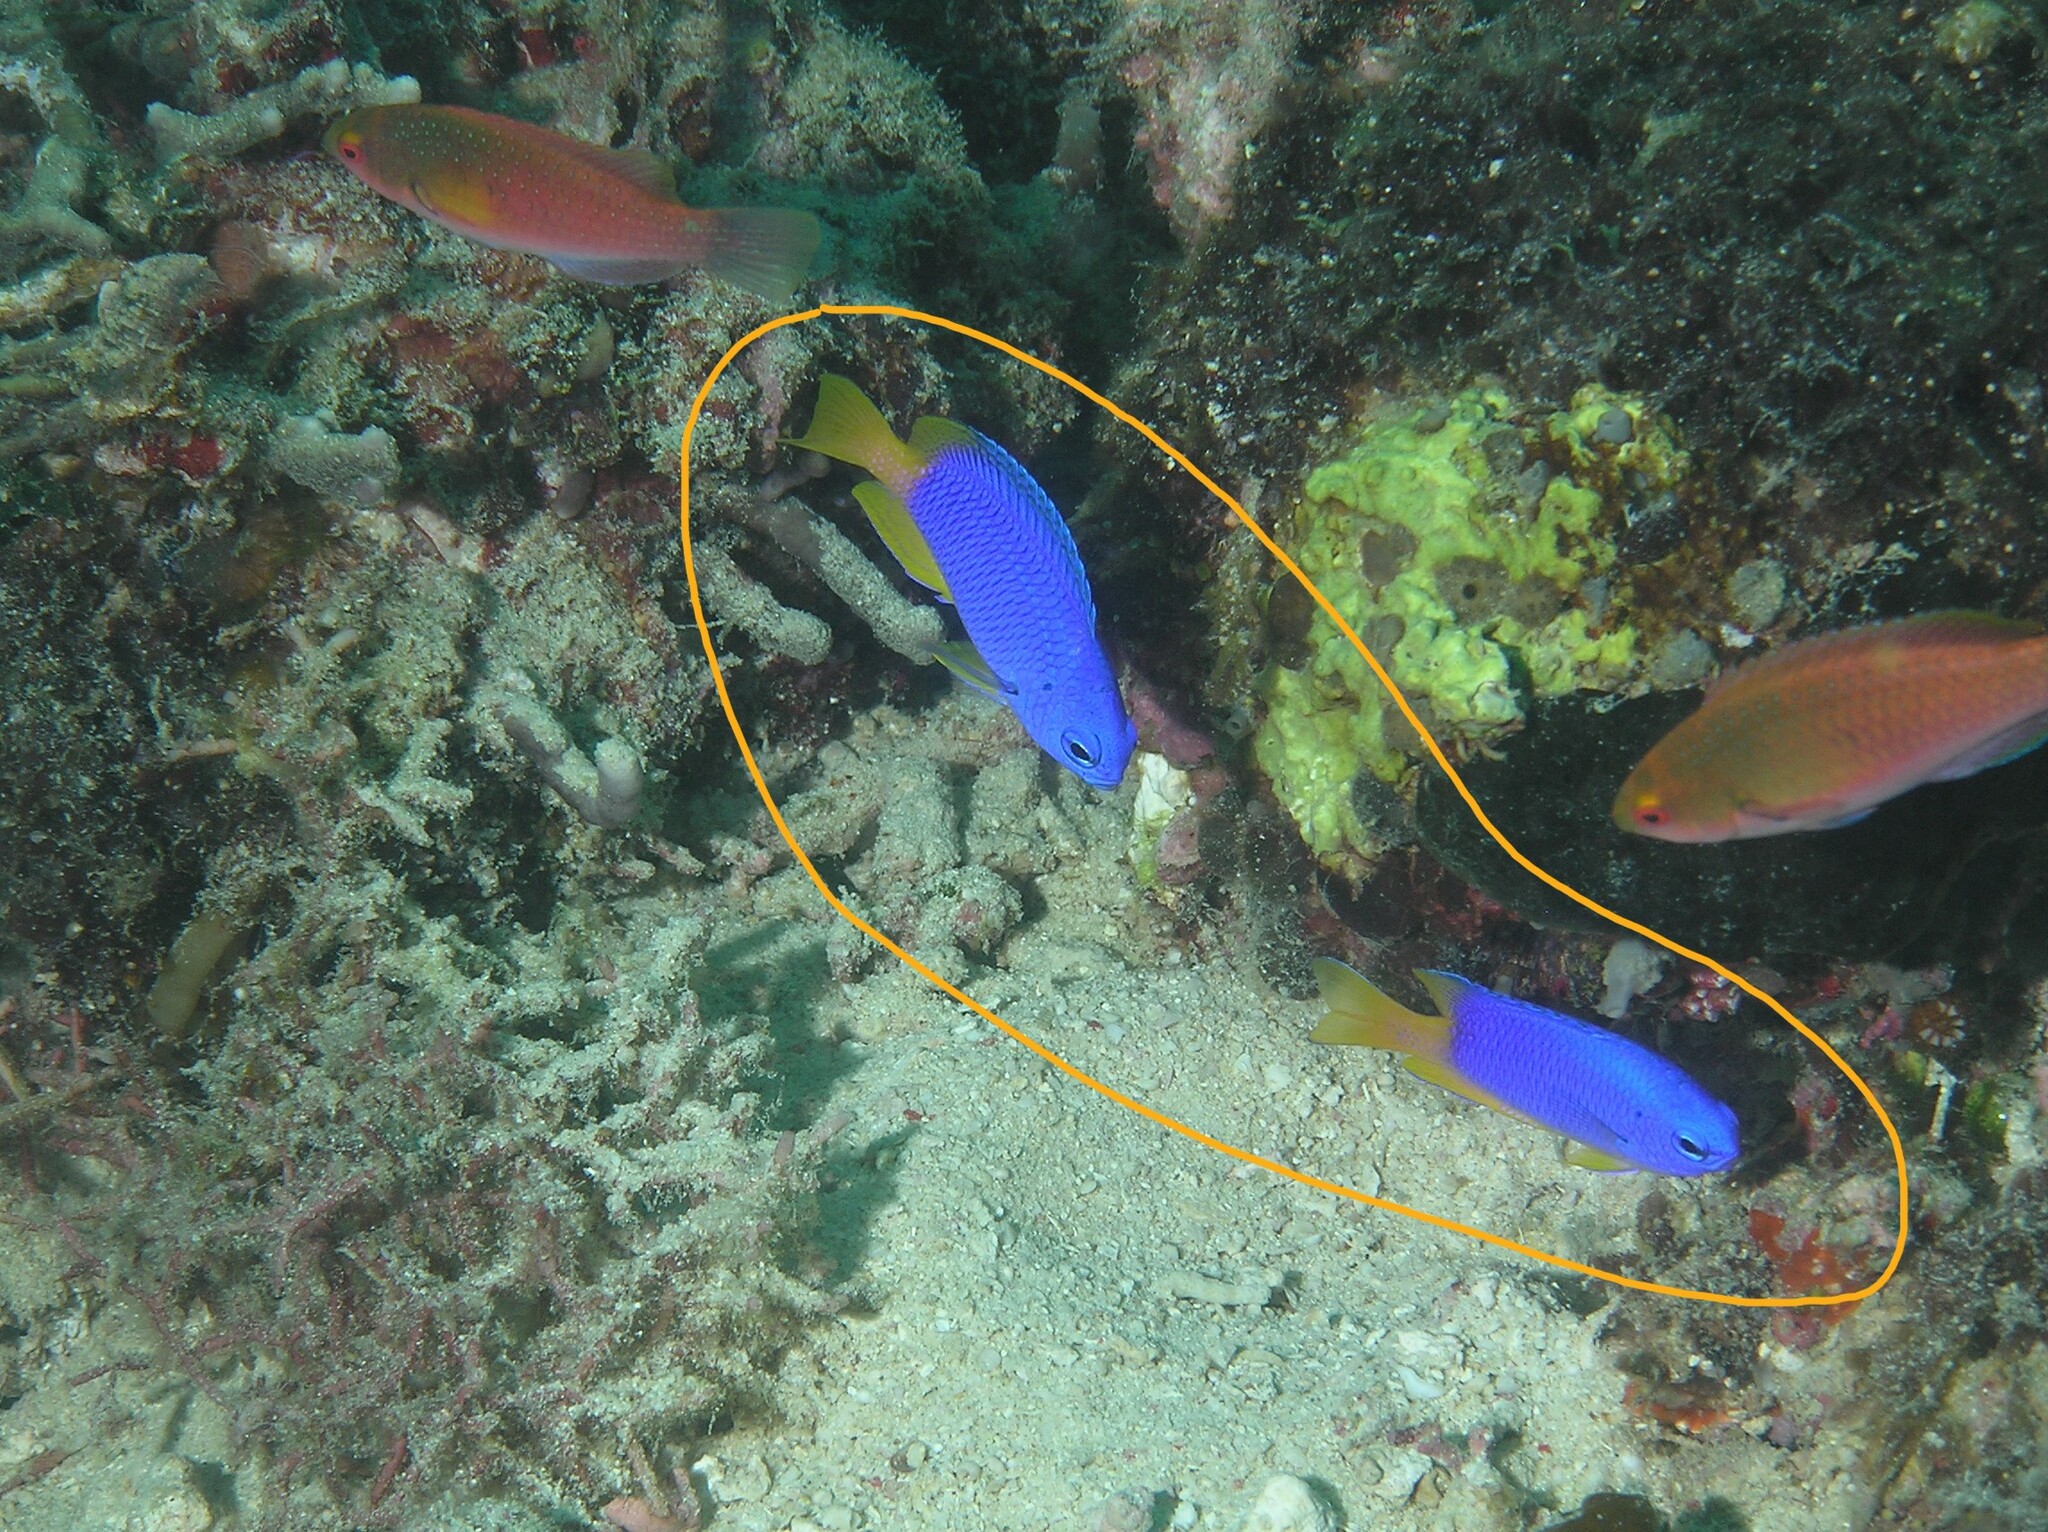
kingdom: Animalia
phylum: Chordata
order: Perciformes
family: Pomacentridae
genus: Pomacentrus
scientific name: Pomacentrus coelestis
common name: Neon damsel
